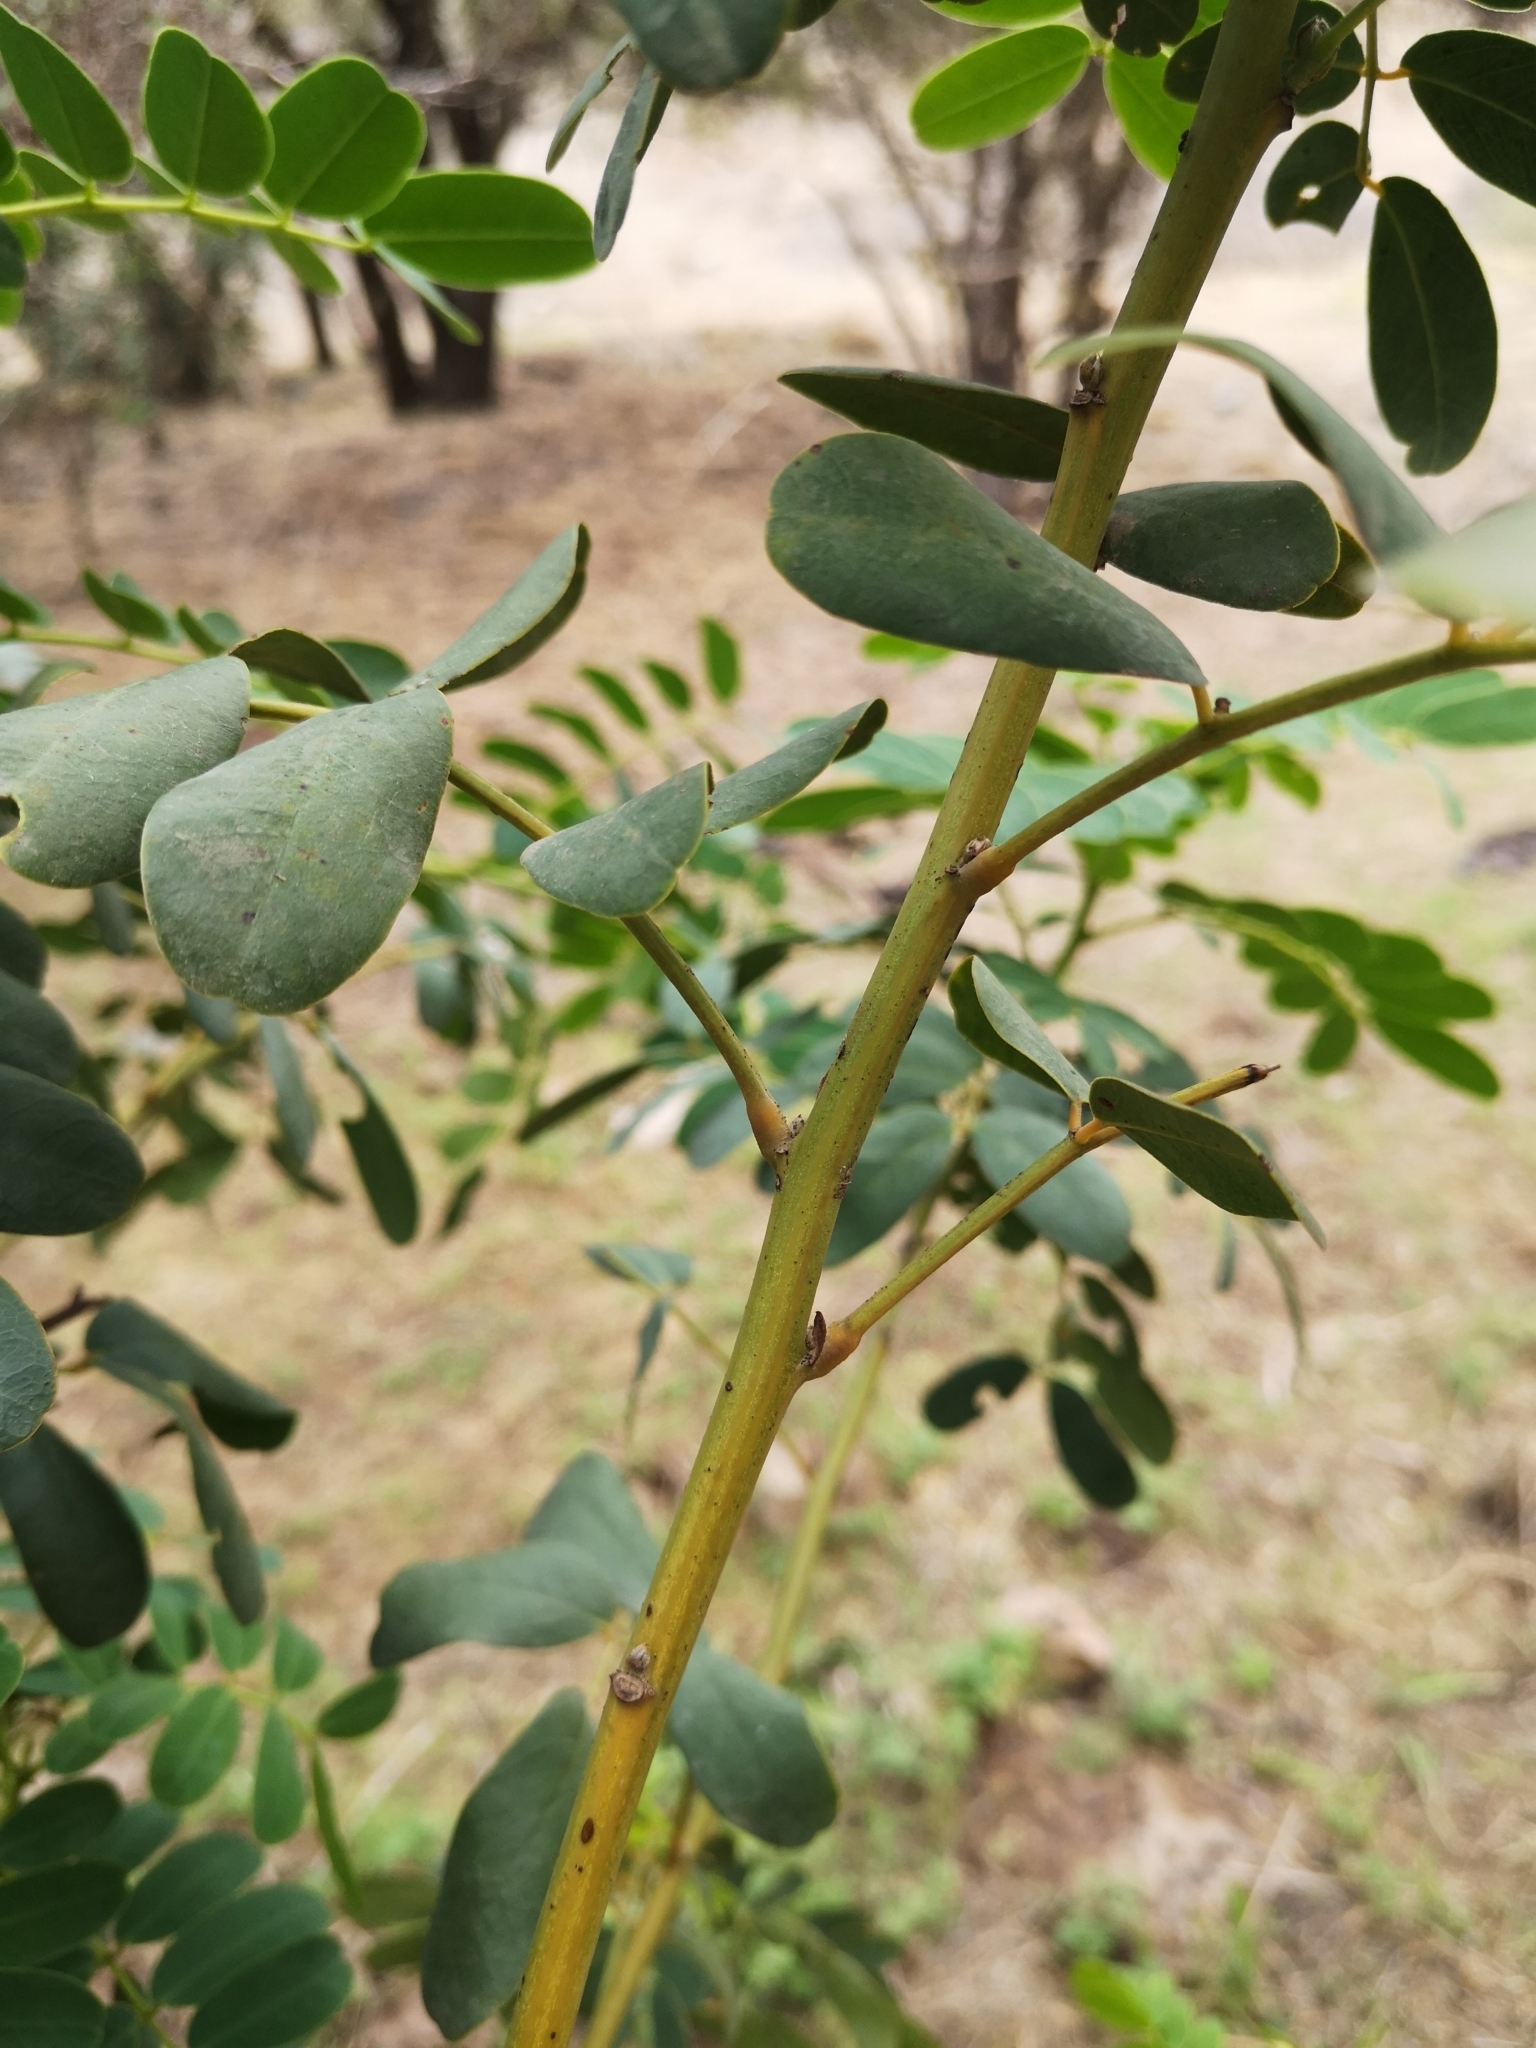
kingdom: Plantae
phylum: Tracheophyta
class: Magnoliopsida
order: Fabales
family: Fabaceae
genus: Senna
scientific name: Senna candolleana
